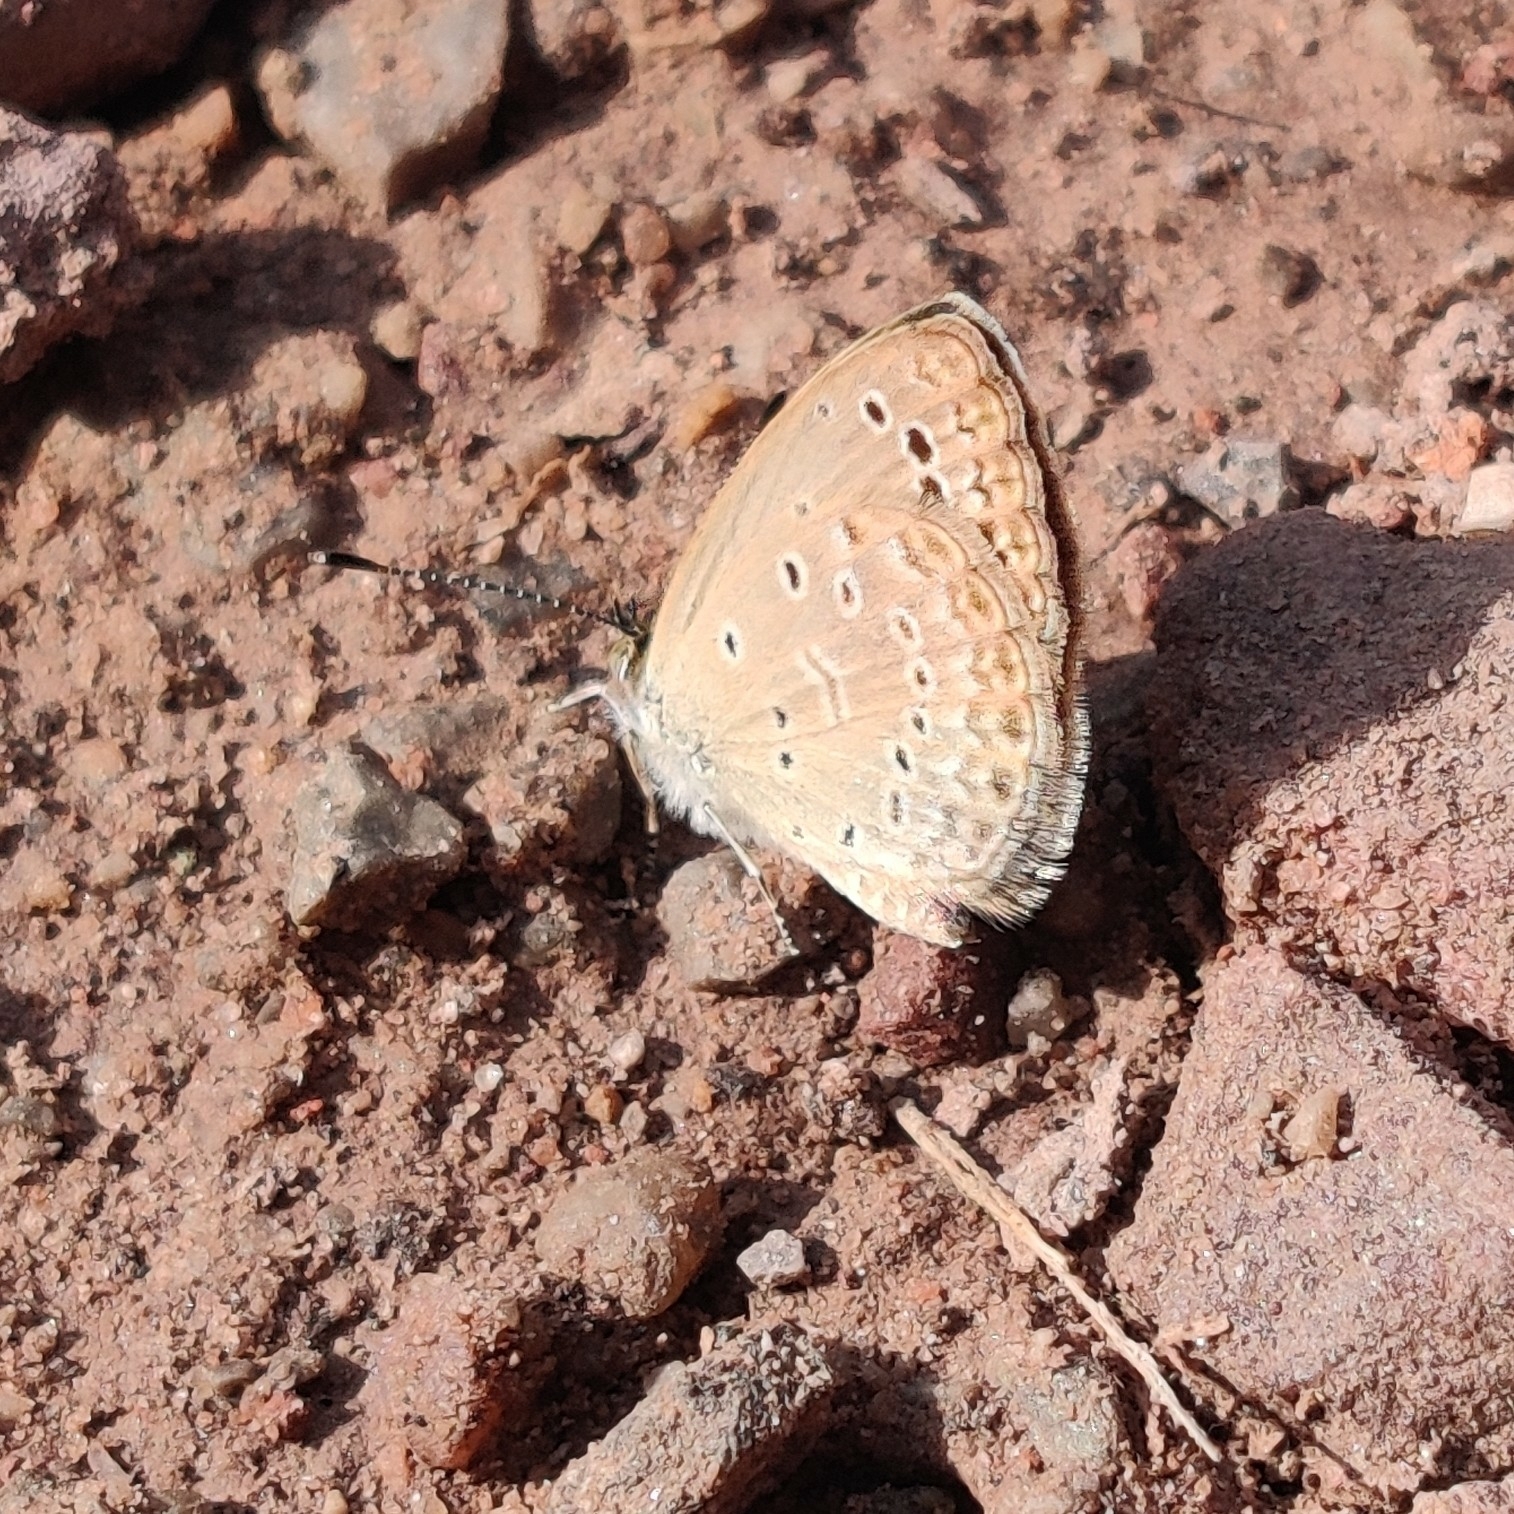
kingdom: Animalia
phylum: Arthropoda
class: Insecta
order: Lepidoptera
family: Lycaenidae
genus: Pseudozizeeria
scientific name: Pseudozizeeria maha
